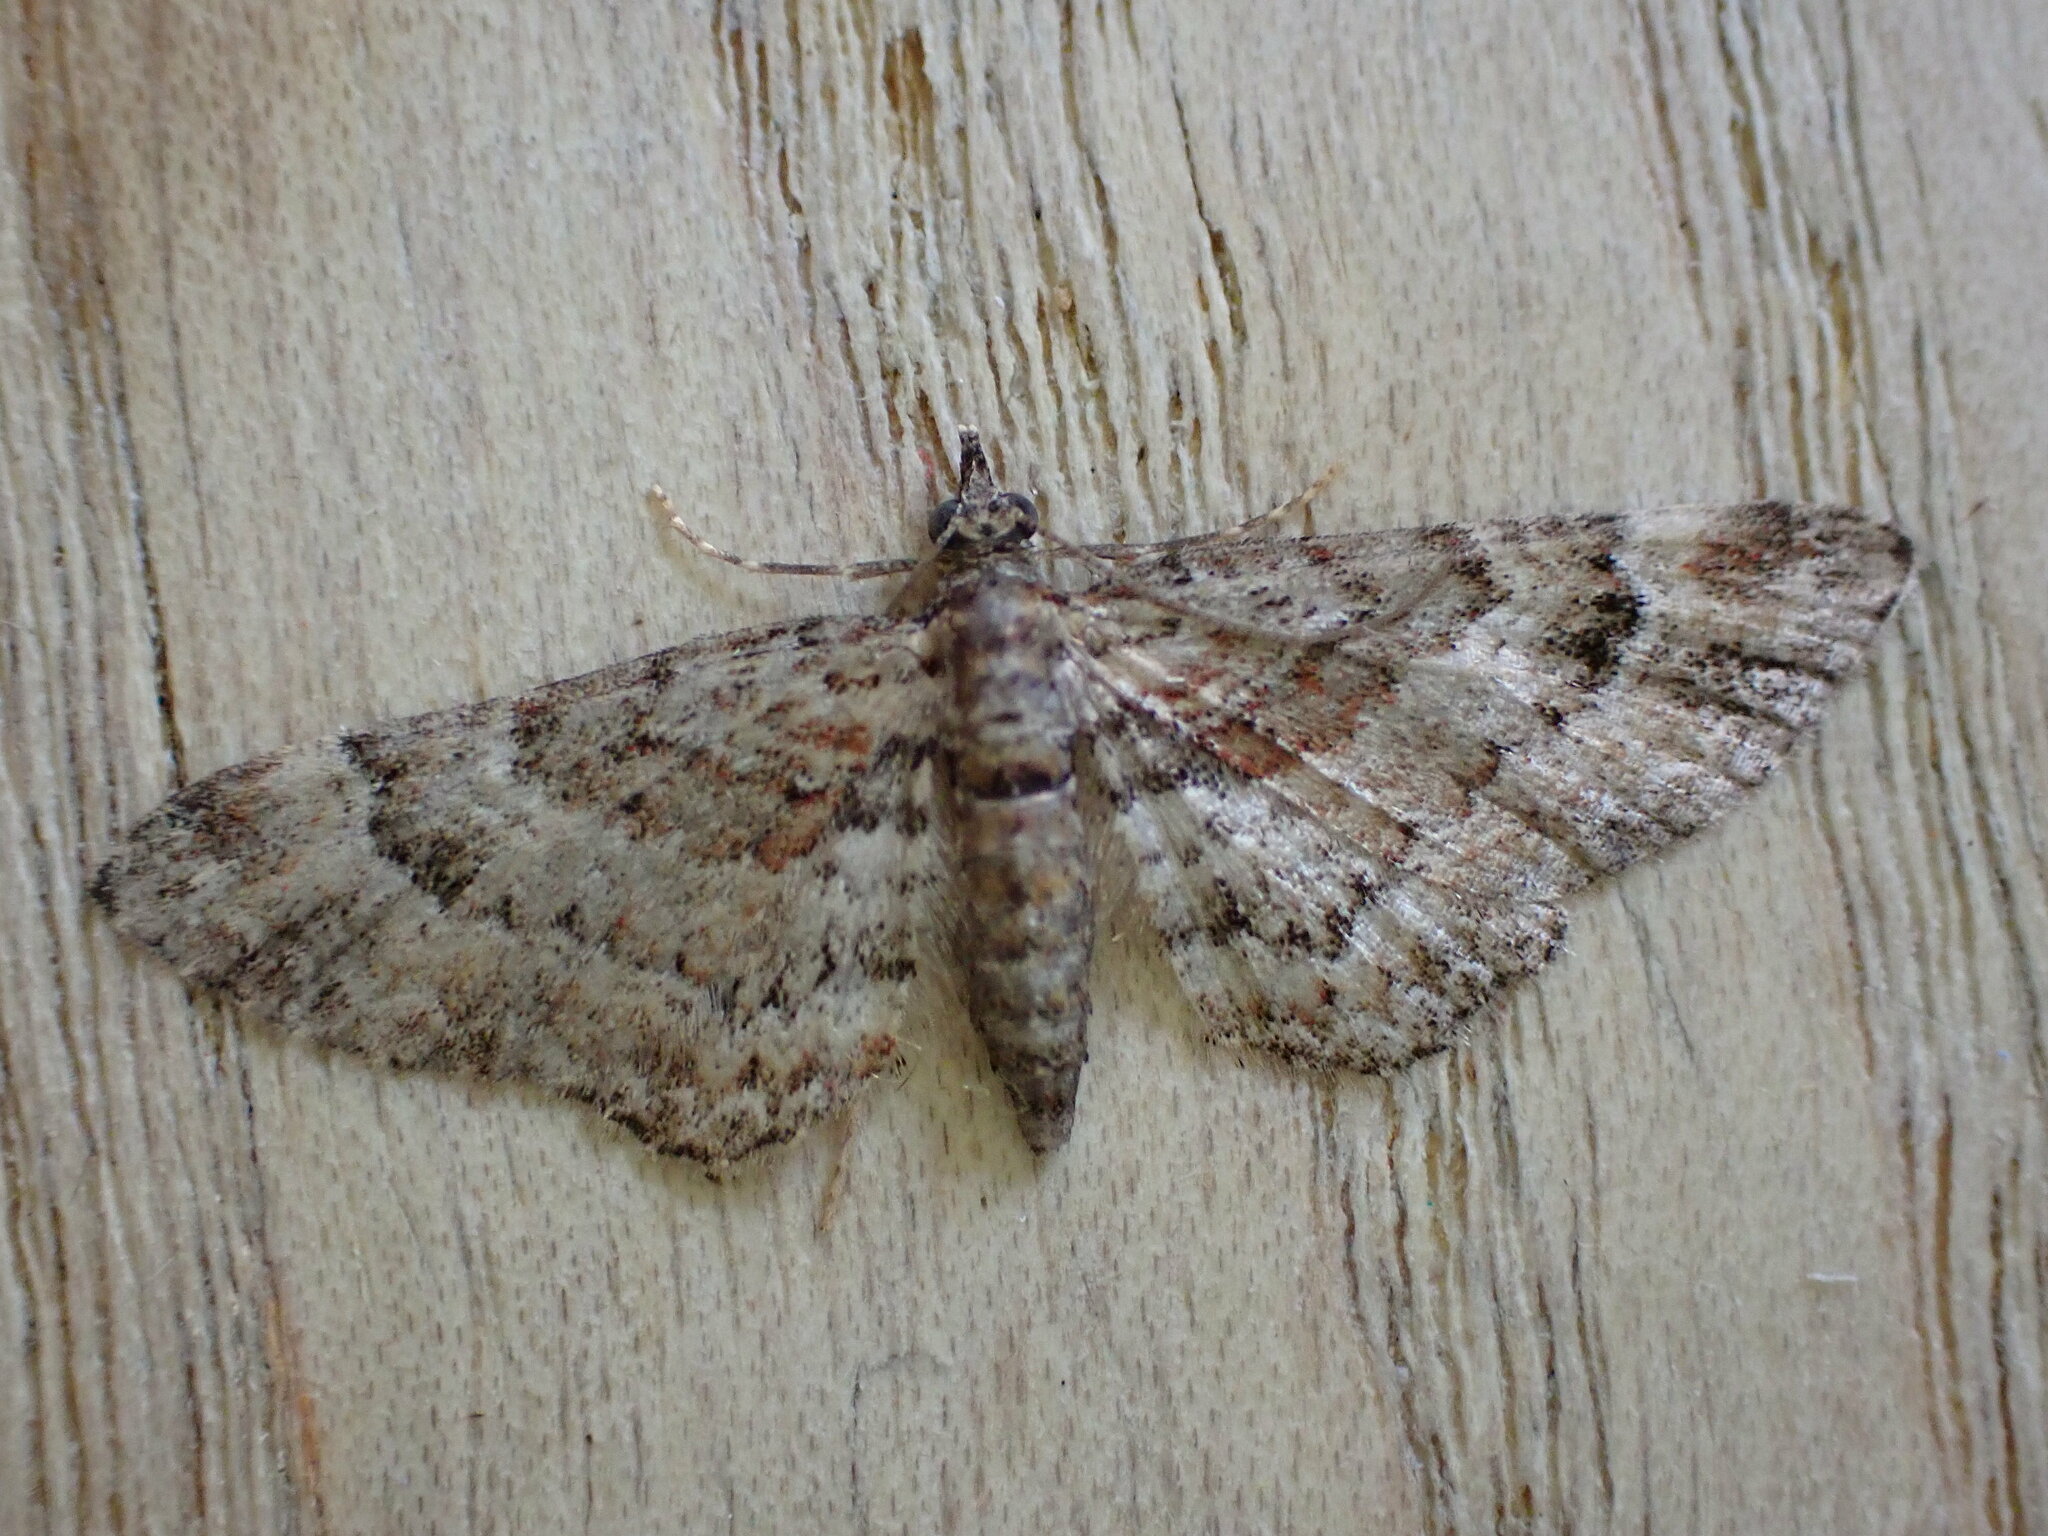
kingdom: Animalia
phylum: Arthropoda
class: Insecta
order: Lepidoptera
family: Geometridae
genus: Gymnoscelis
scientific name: Gymnoscelis rufifasciata
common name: Double-striped pug
